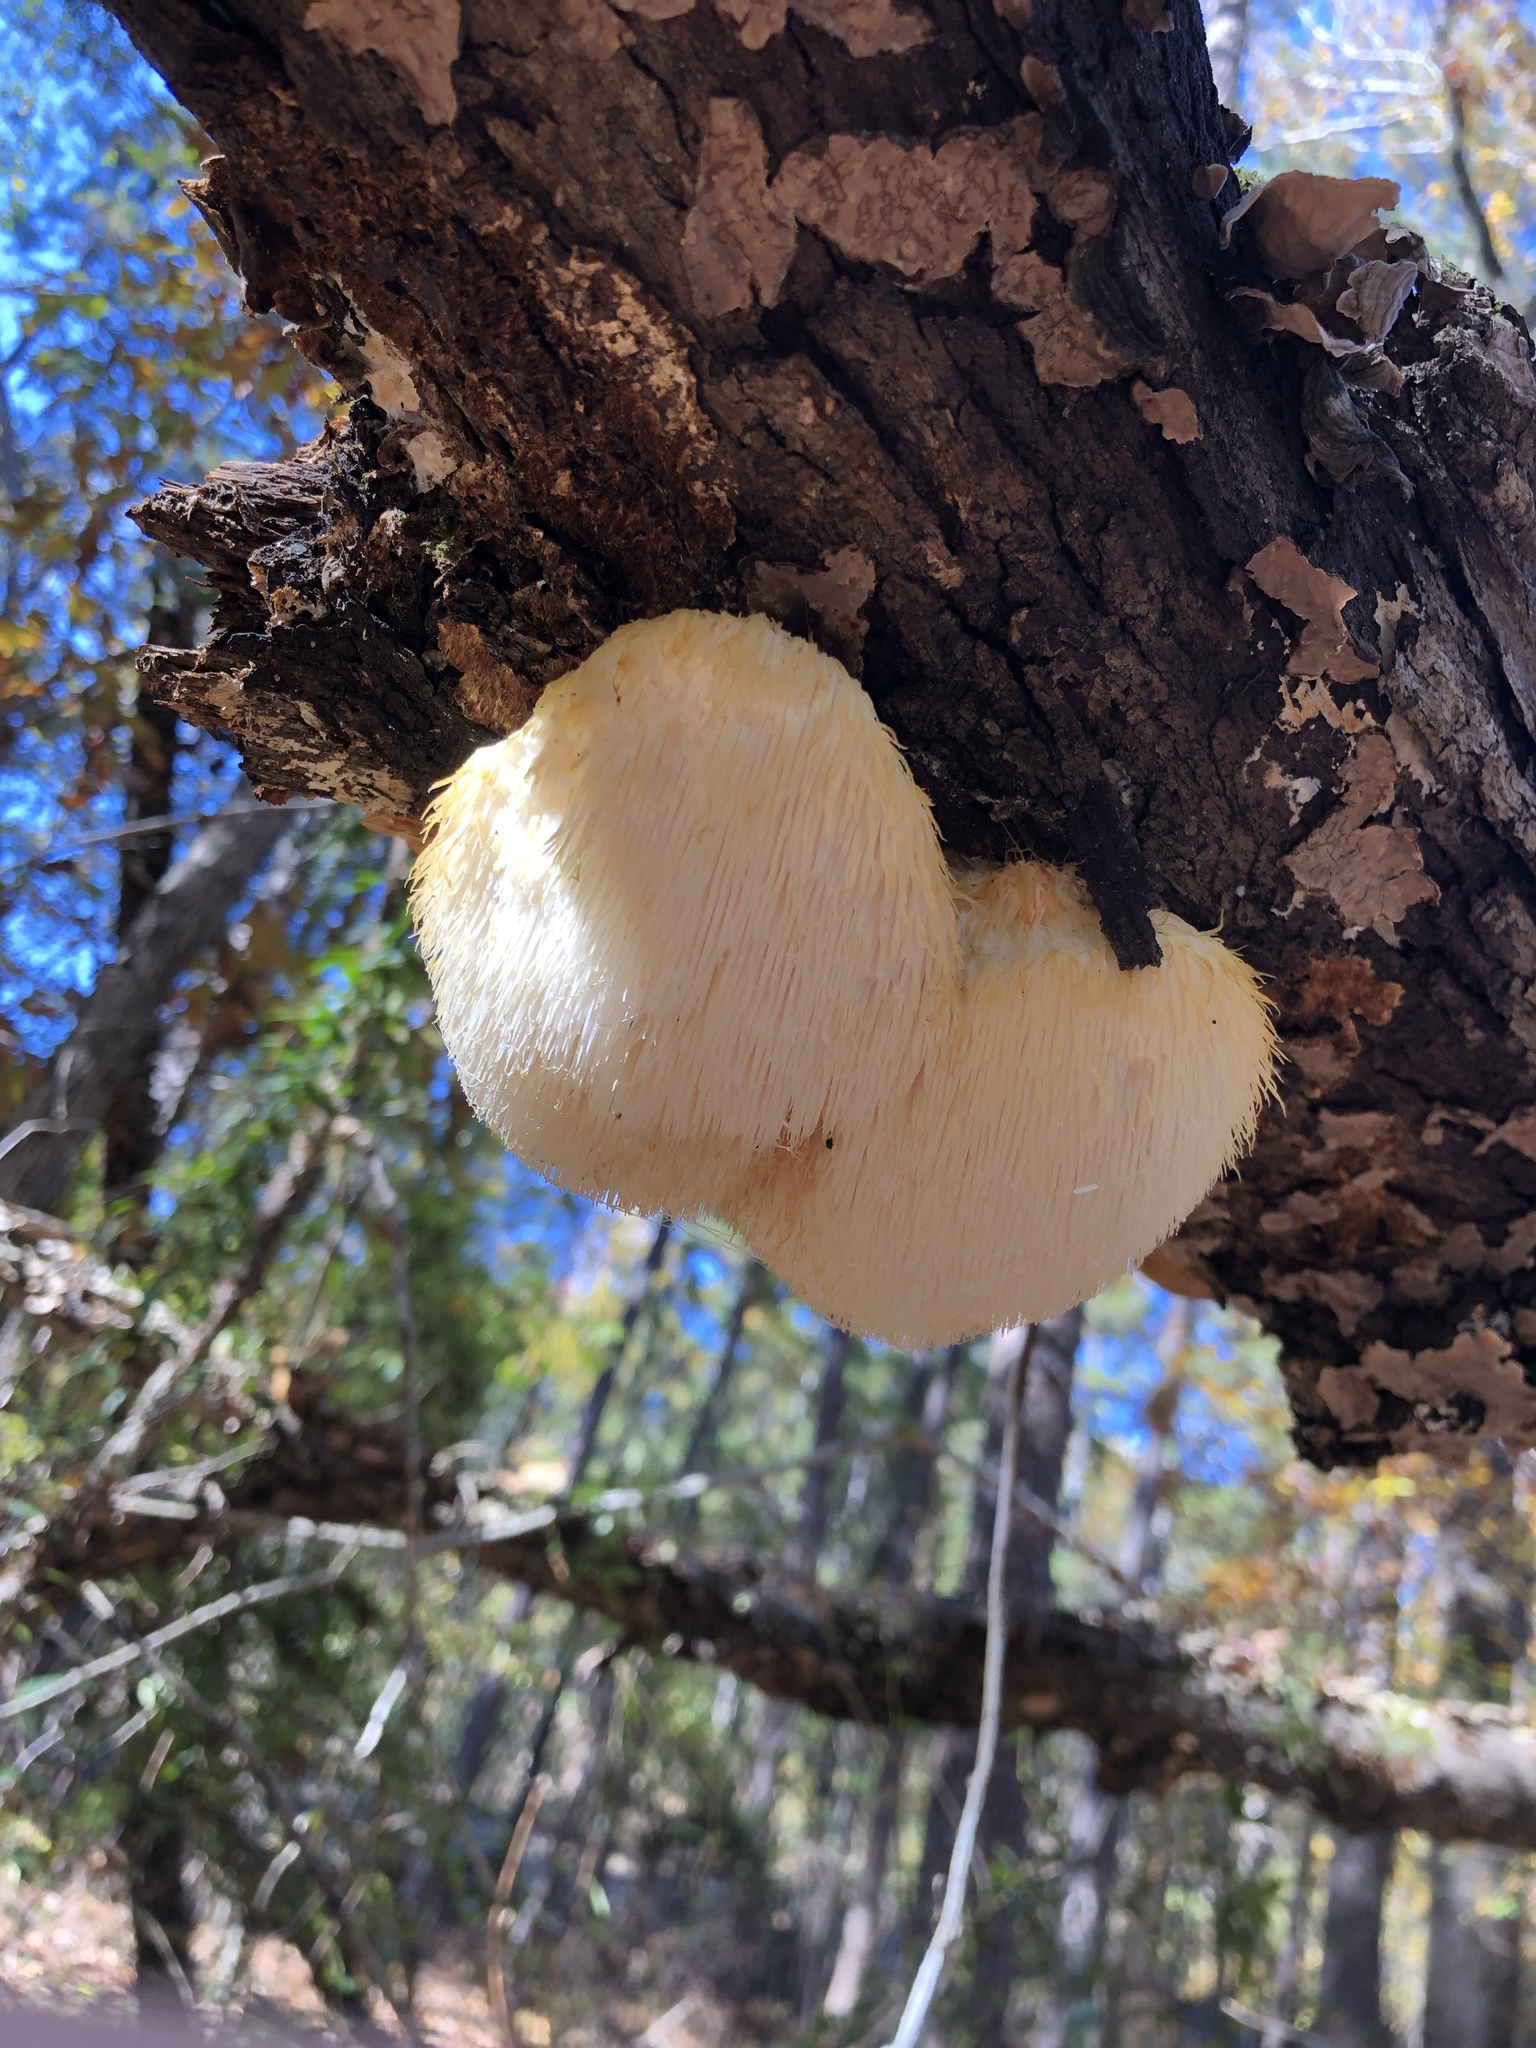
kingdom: Fungi
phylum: Basidiomycota
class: Agaricomycetes
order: Russulales
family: Hericiaceae
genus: Hericium
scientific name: Hericium erinaceus
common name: Bearded tooth
